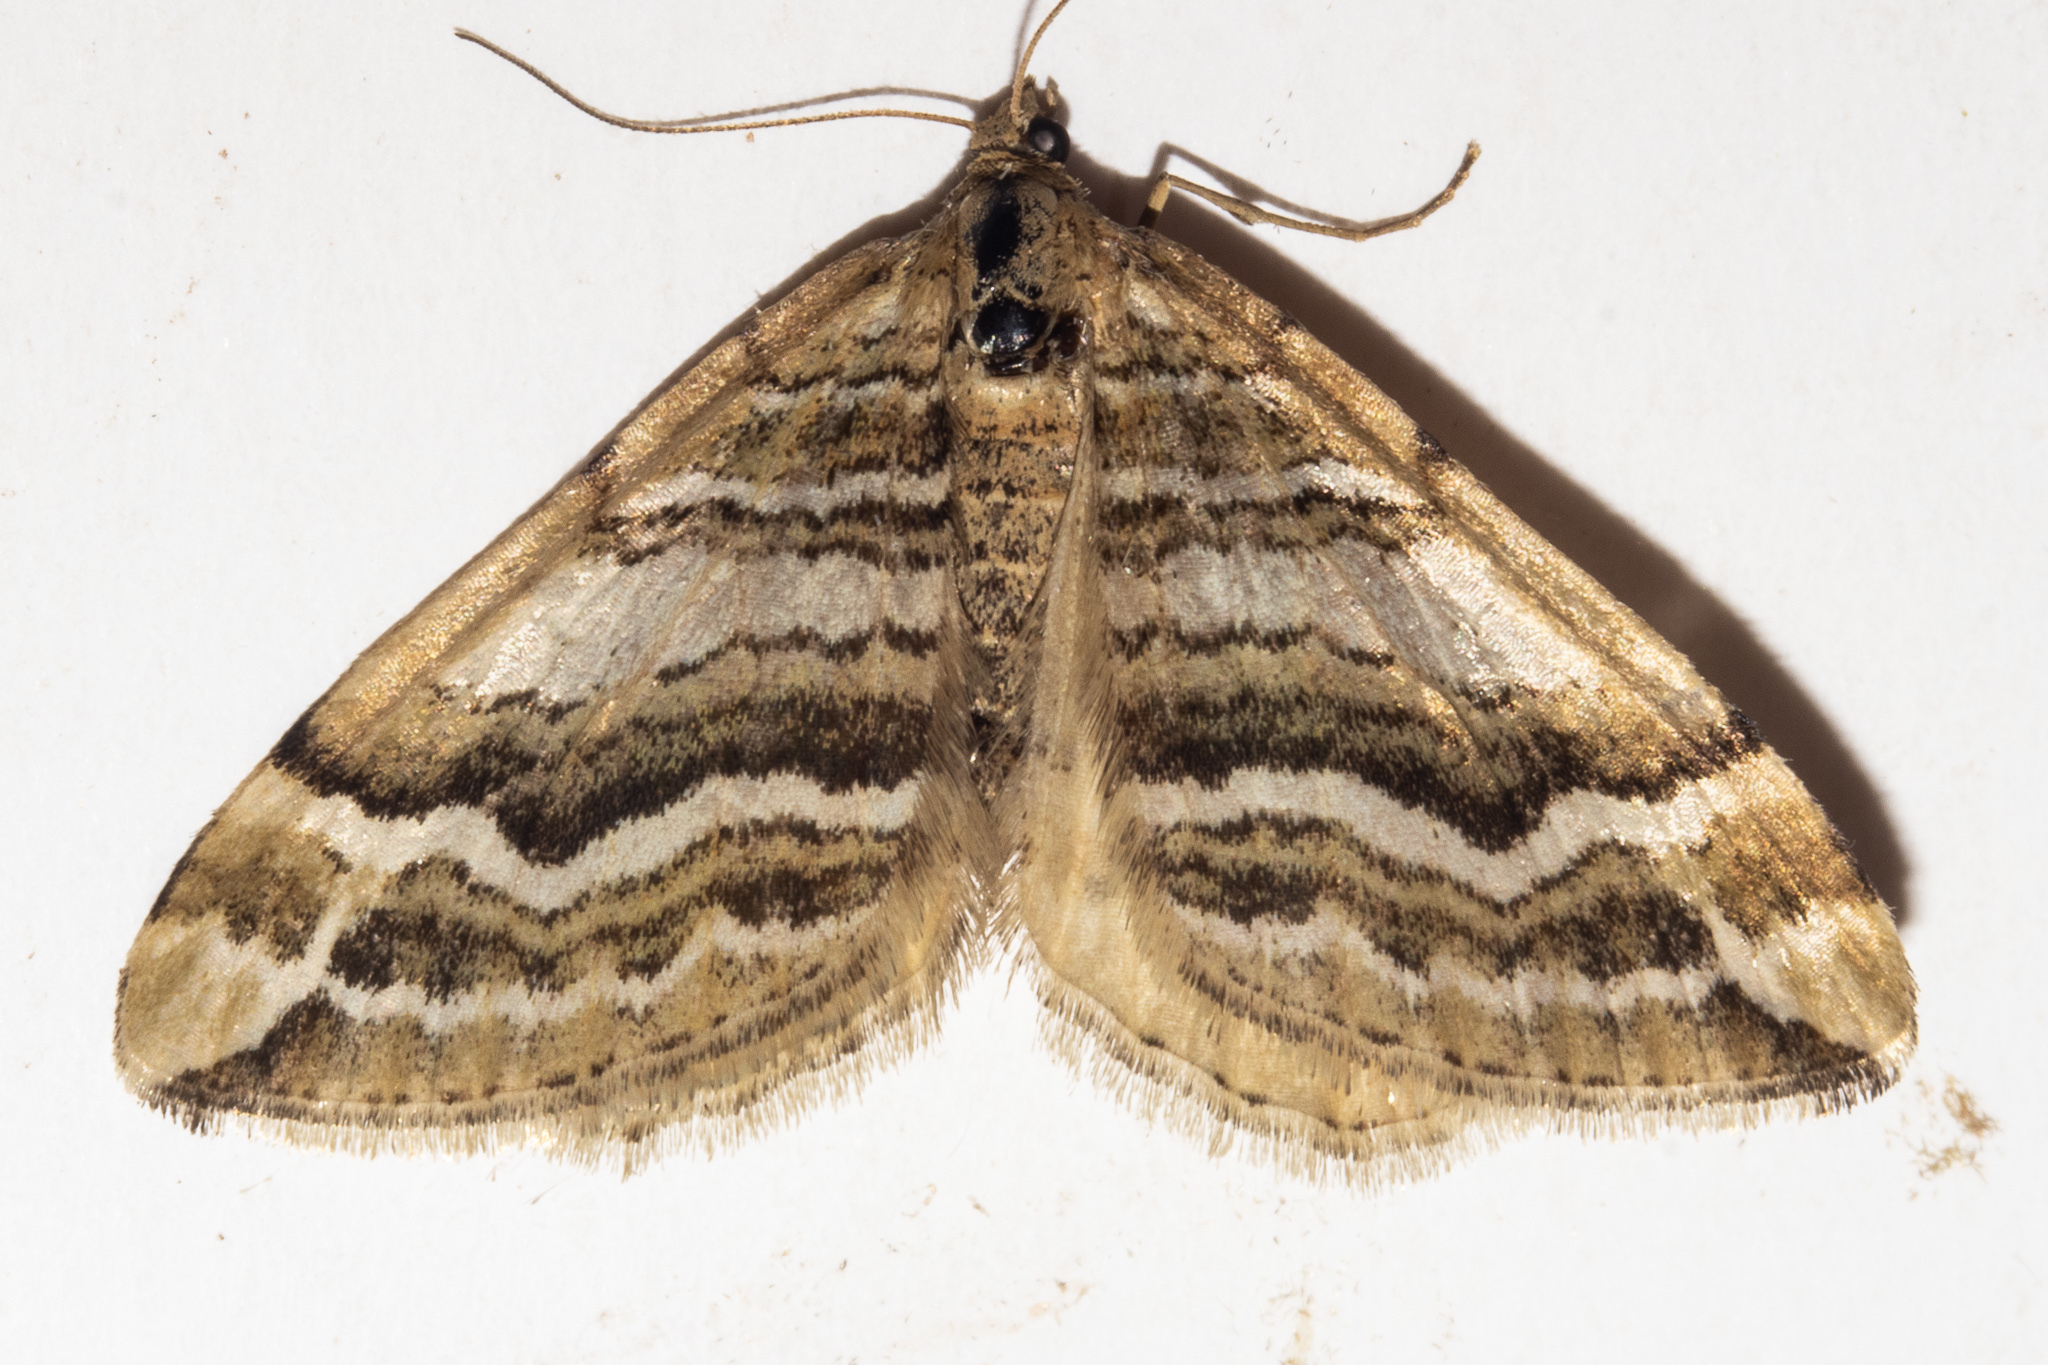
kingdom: Animalia
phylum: Arthropoda
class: Insecta
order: Lepidoptera
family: Geometridae
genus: Asaphodes
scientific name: Asaphodes cataphracta
